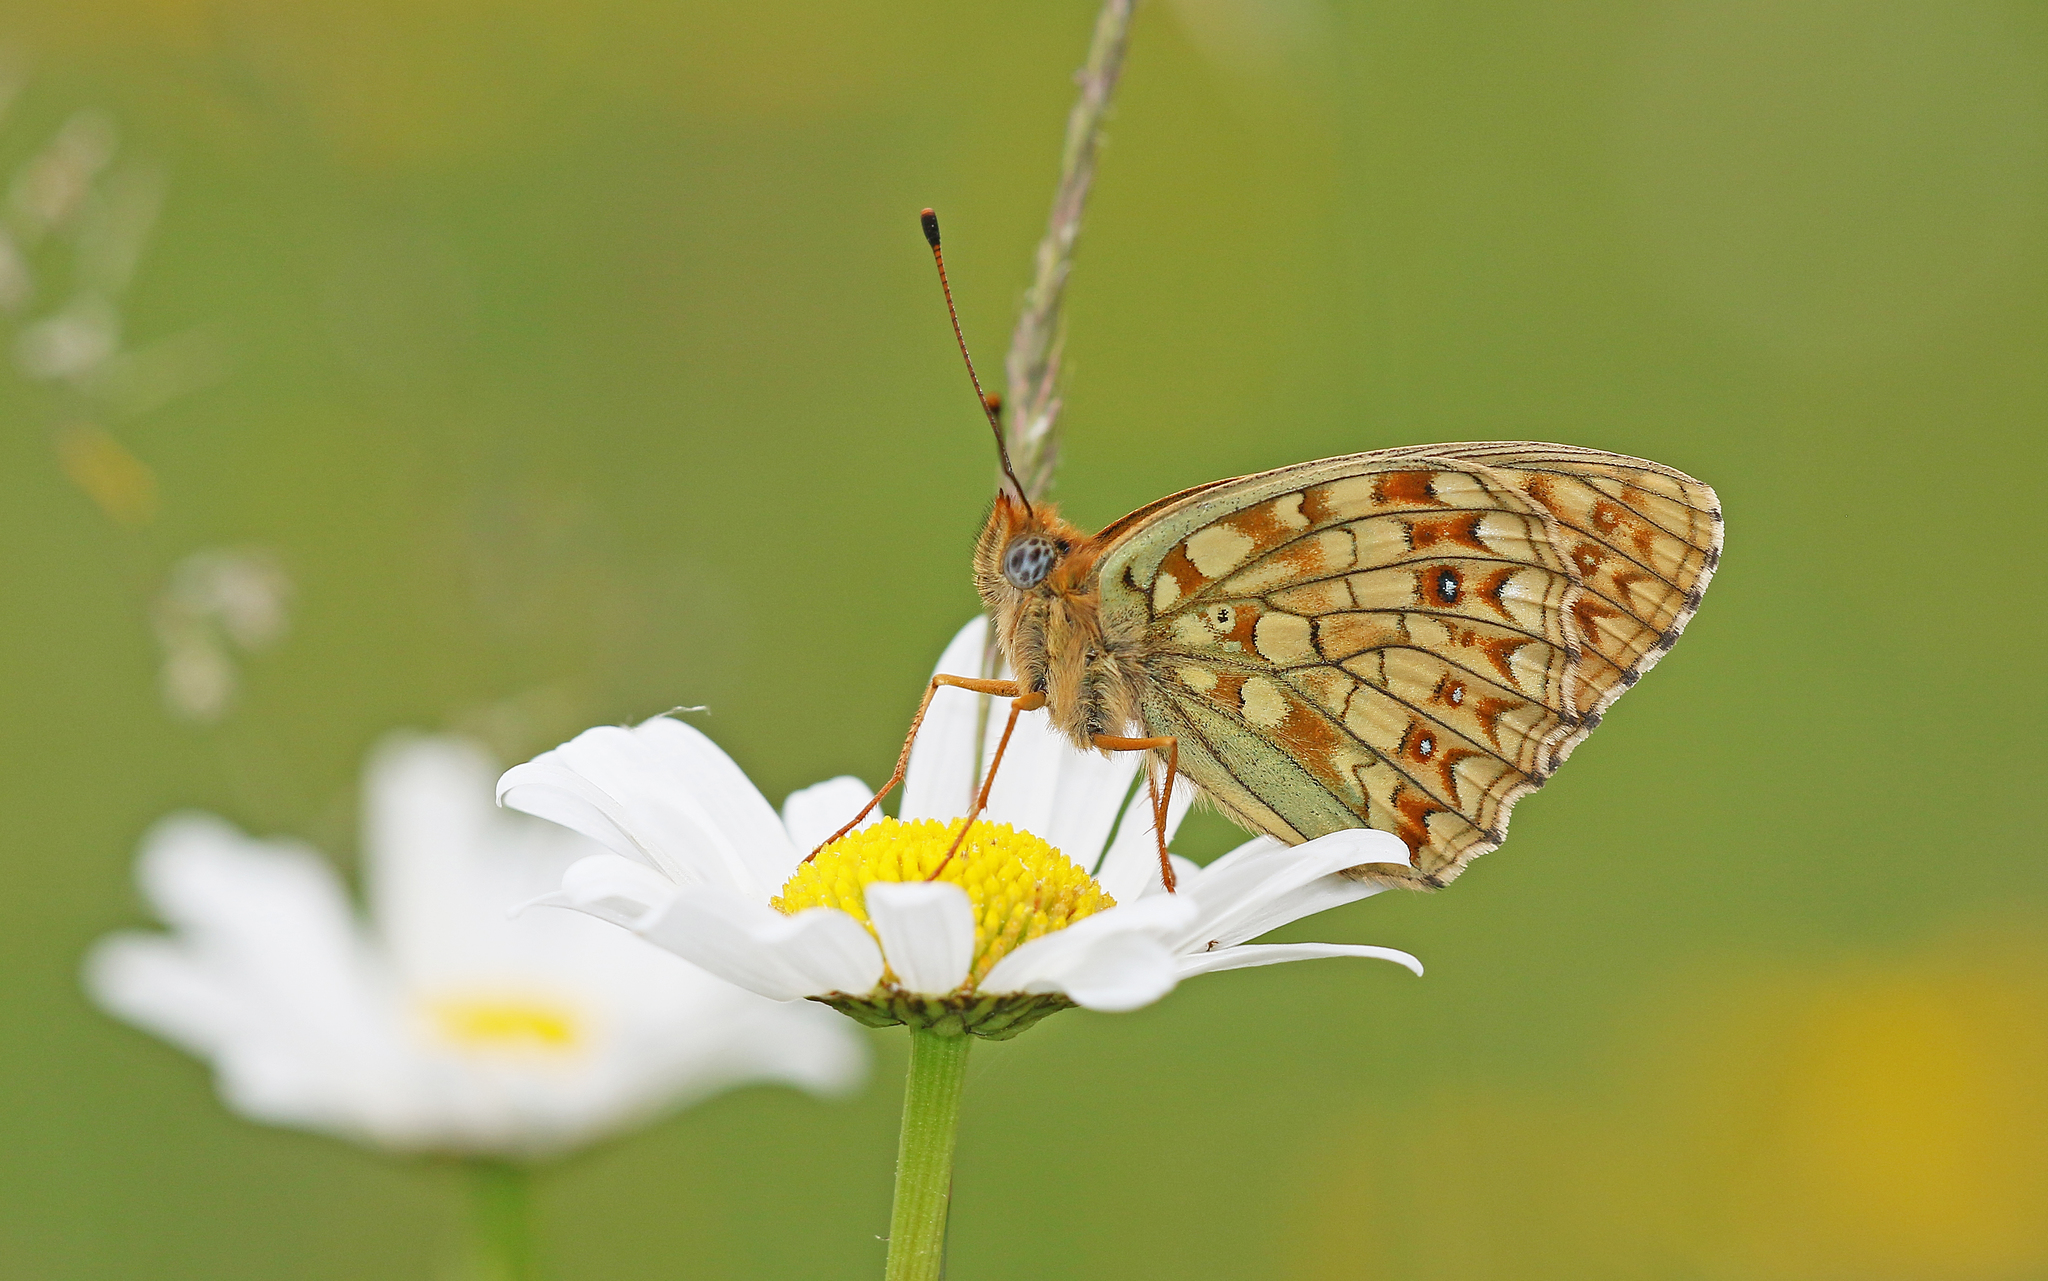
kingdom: Animalia
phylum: Arthropoda
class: Insecta
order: Lepidoptera
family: Nymphalidae
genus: Fabriciana
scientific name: Fabriciana niobe
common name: Niobe fritillary
